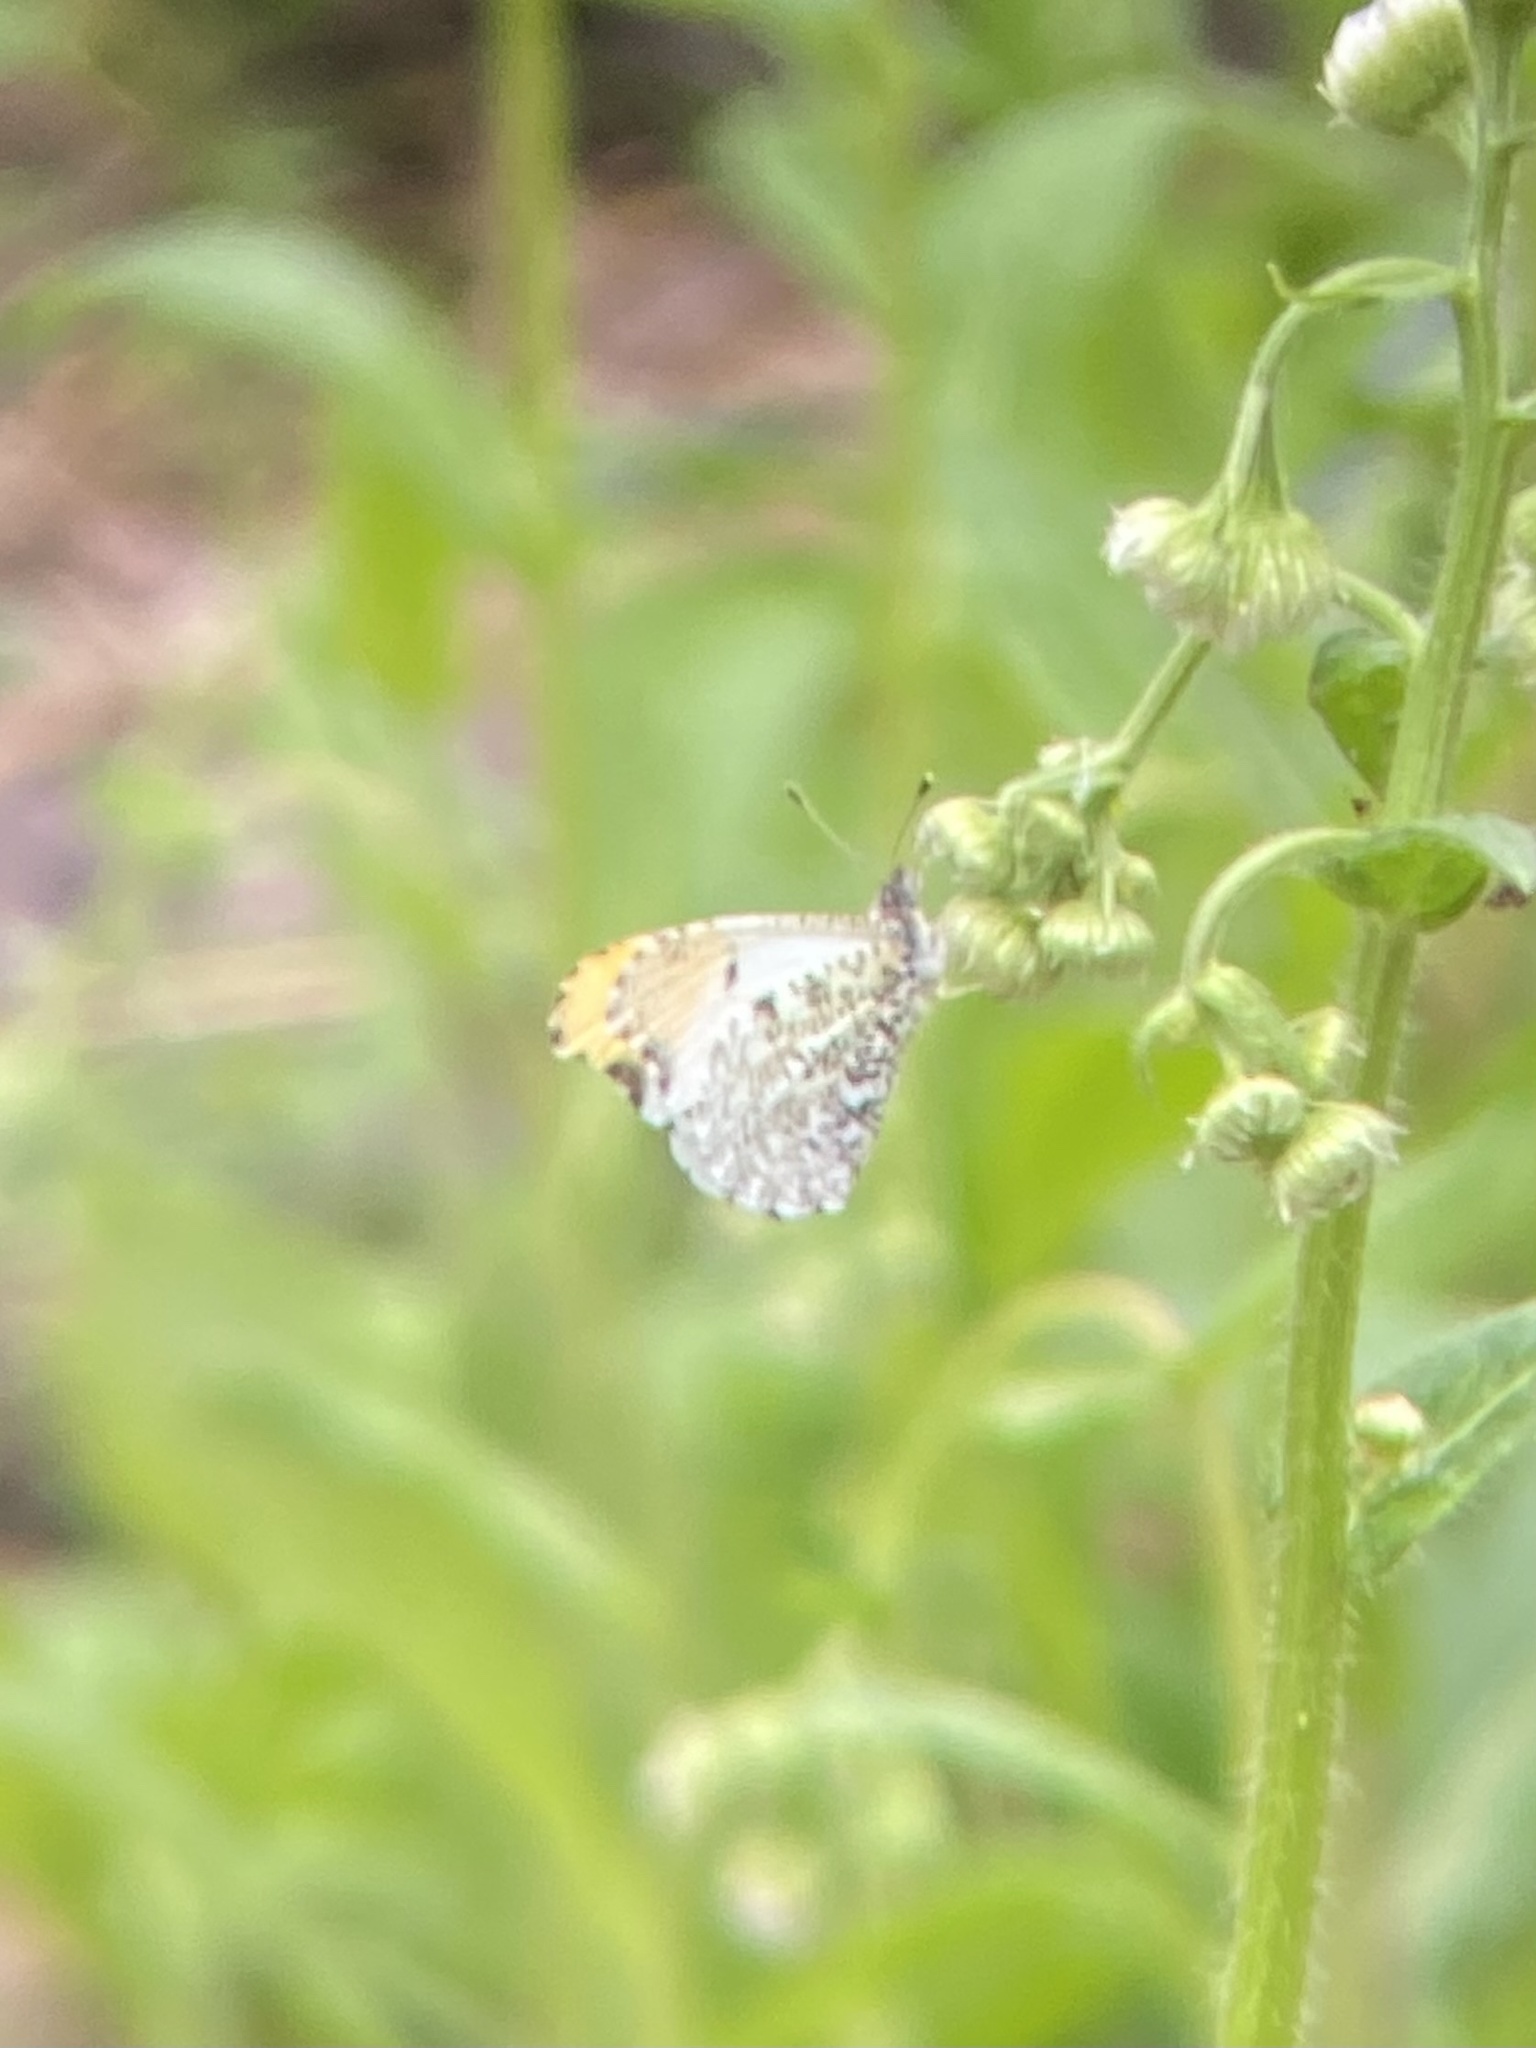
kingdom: Animalia
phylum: Arthropoda
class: Insecta
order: Lepidoptera
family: Pieridae
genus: Anthocharis
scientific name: Anthocharis midea
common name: Falcate orangetip
